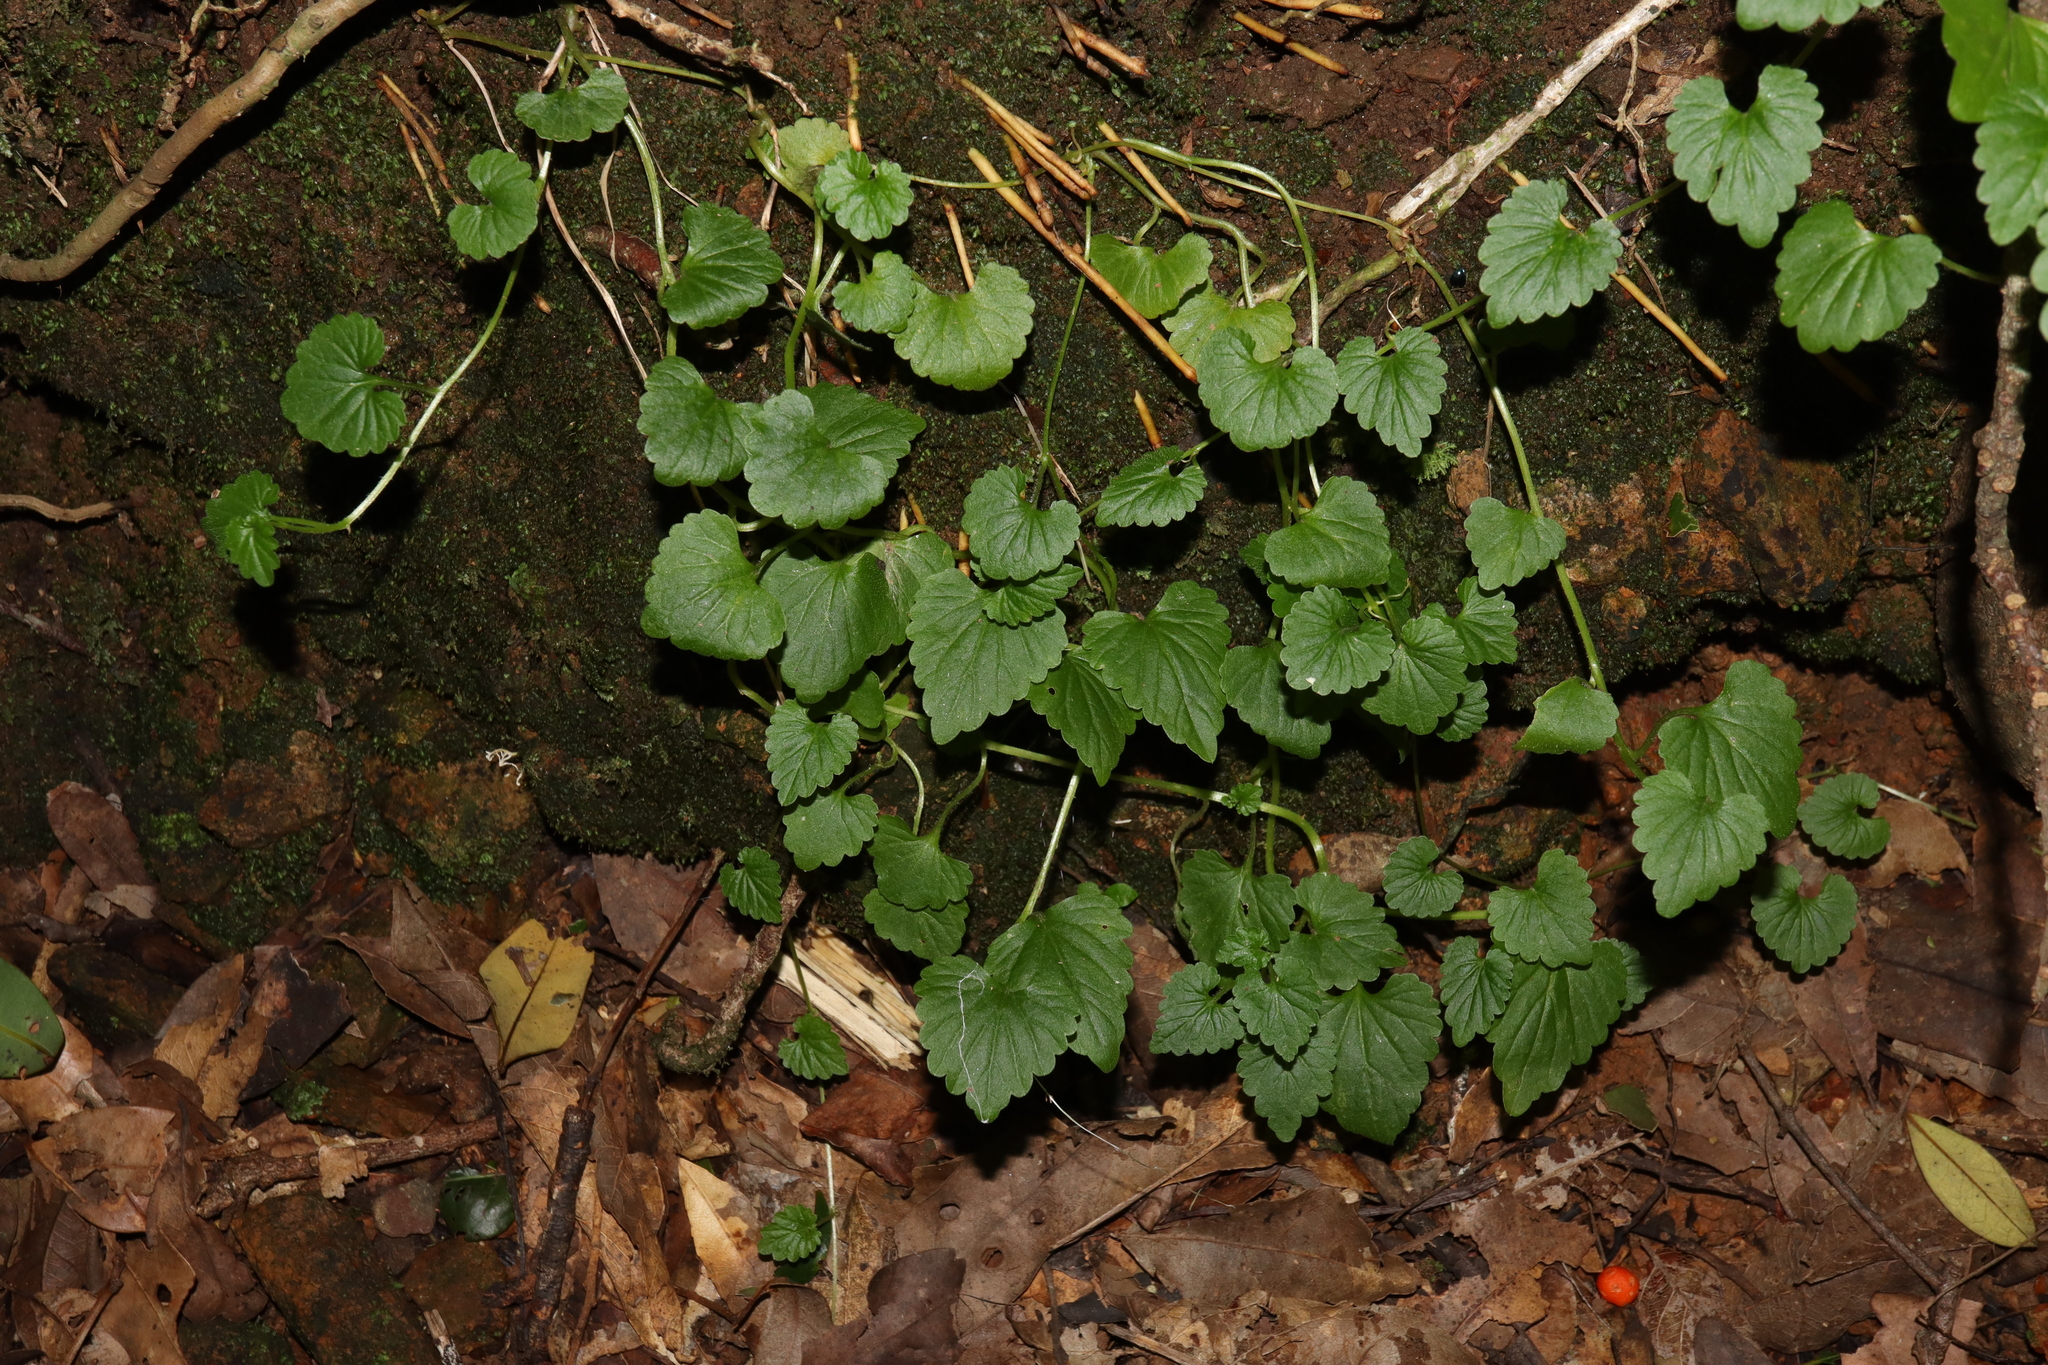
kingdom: Plantae
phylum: Tracheophyta
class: Magnoliopsida
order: Asterales
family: Campanulaceae
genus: Lobelia
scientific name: Lobelia trigonocaulis
